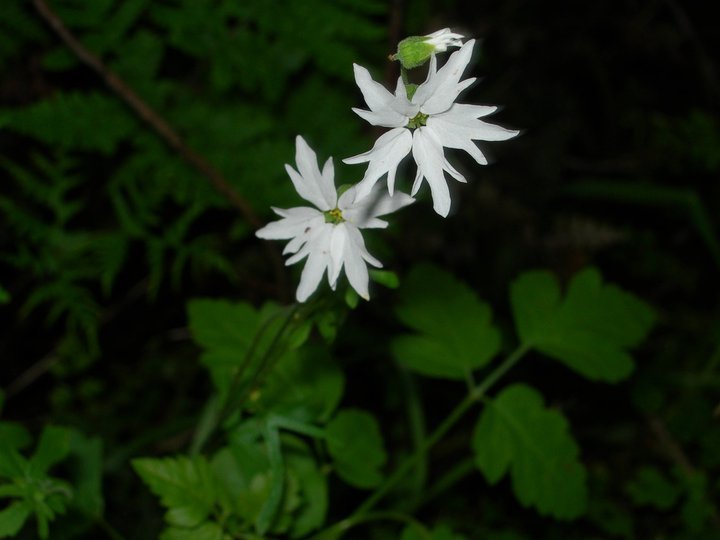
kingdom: Plantae
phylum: Tracheophyta
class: Magnoliopsida
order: Saxifragales
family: Saxifragaceae
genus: Lithophragma
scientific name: Lithophragma heterophyllum
